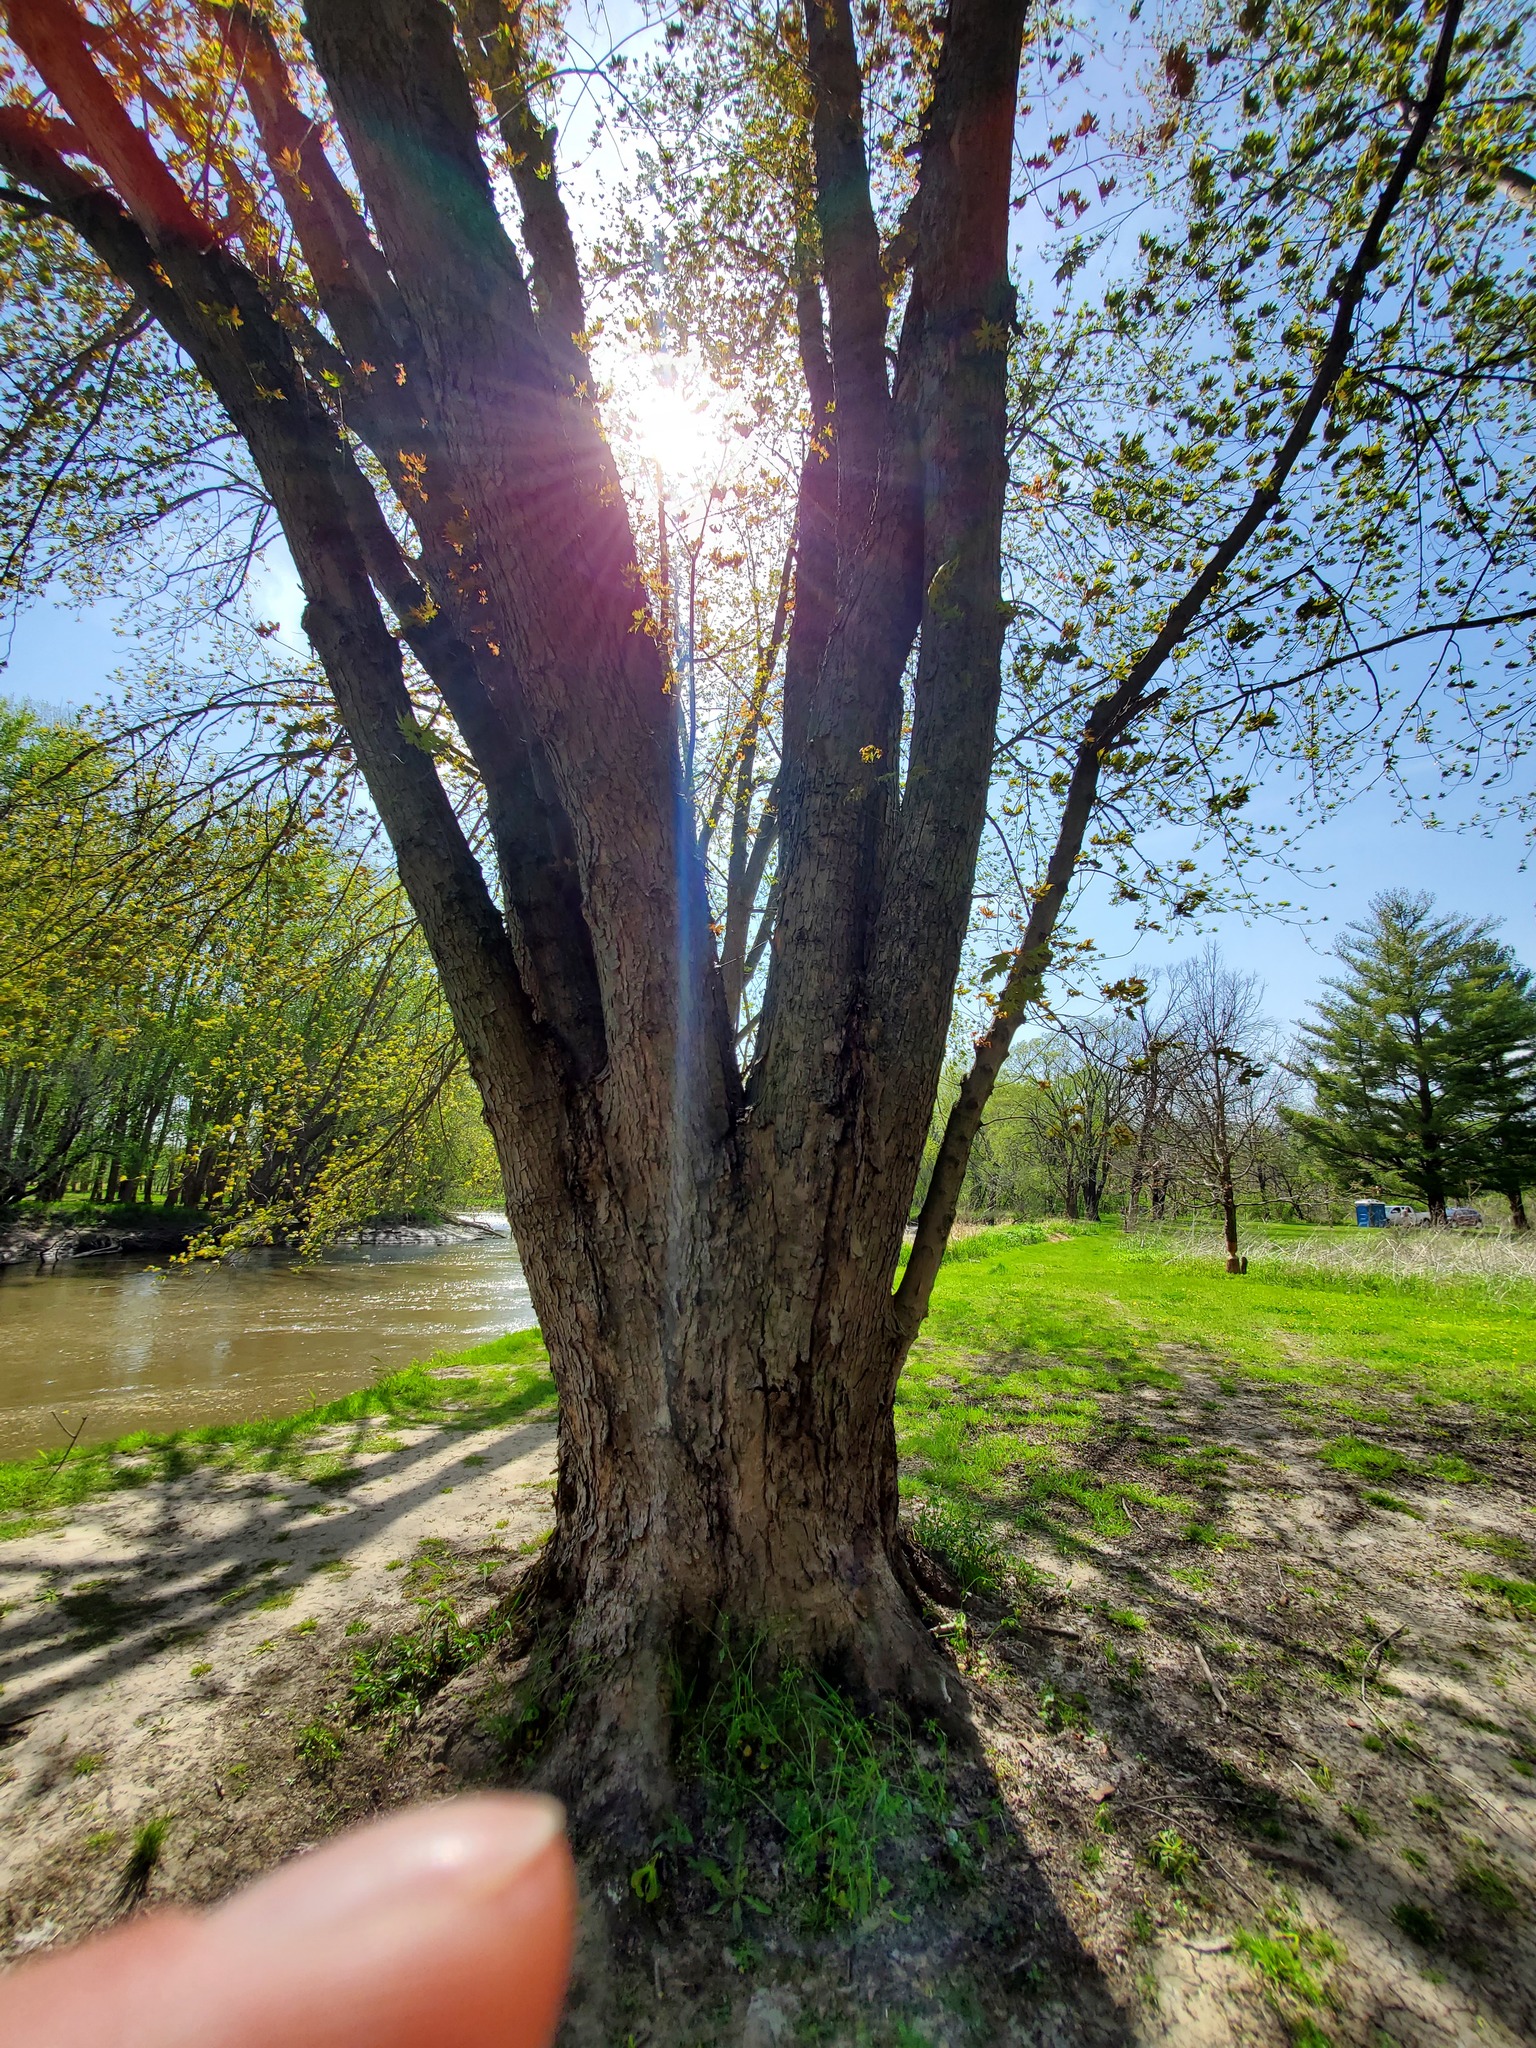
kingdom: Plantae
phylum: Tracheophyta
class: Magnoliopsida
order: Sapindales
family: Sapindaceae
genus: Acer
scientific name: Acer saccharinum
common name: Silver maple
